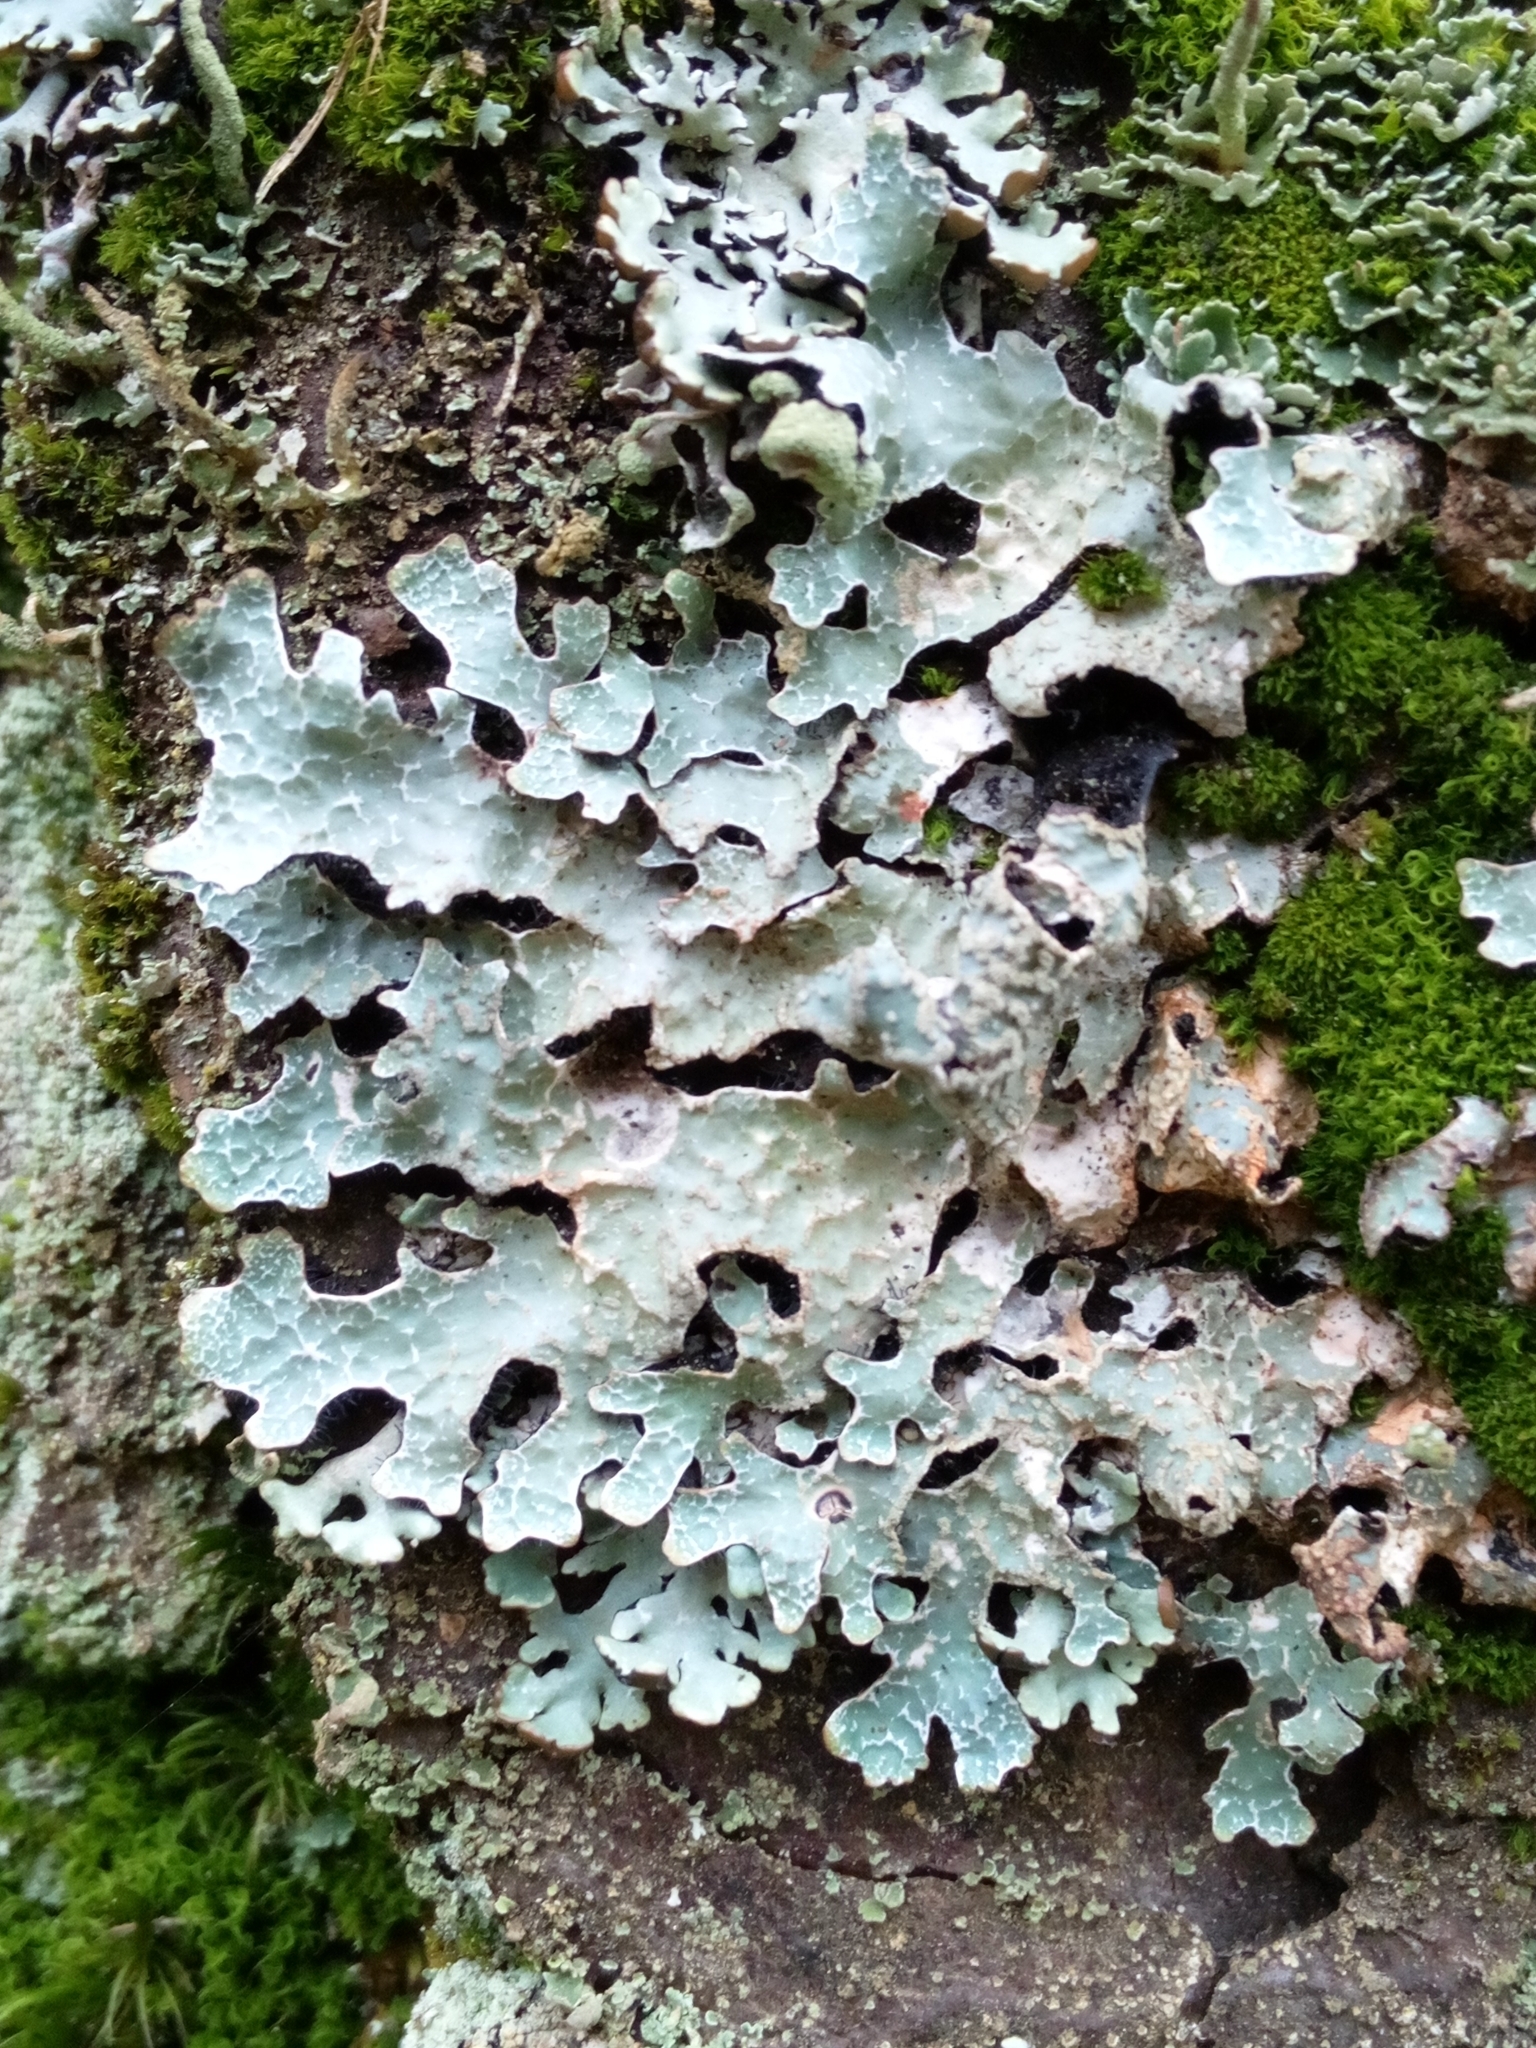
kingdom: Fungi
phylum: Ascomycota
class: Lecanoromycetes
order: Lecanorales
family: Parmeliaceae
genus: Parmelia
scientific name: Parmelia sulcata
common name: Netted shield lichen
